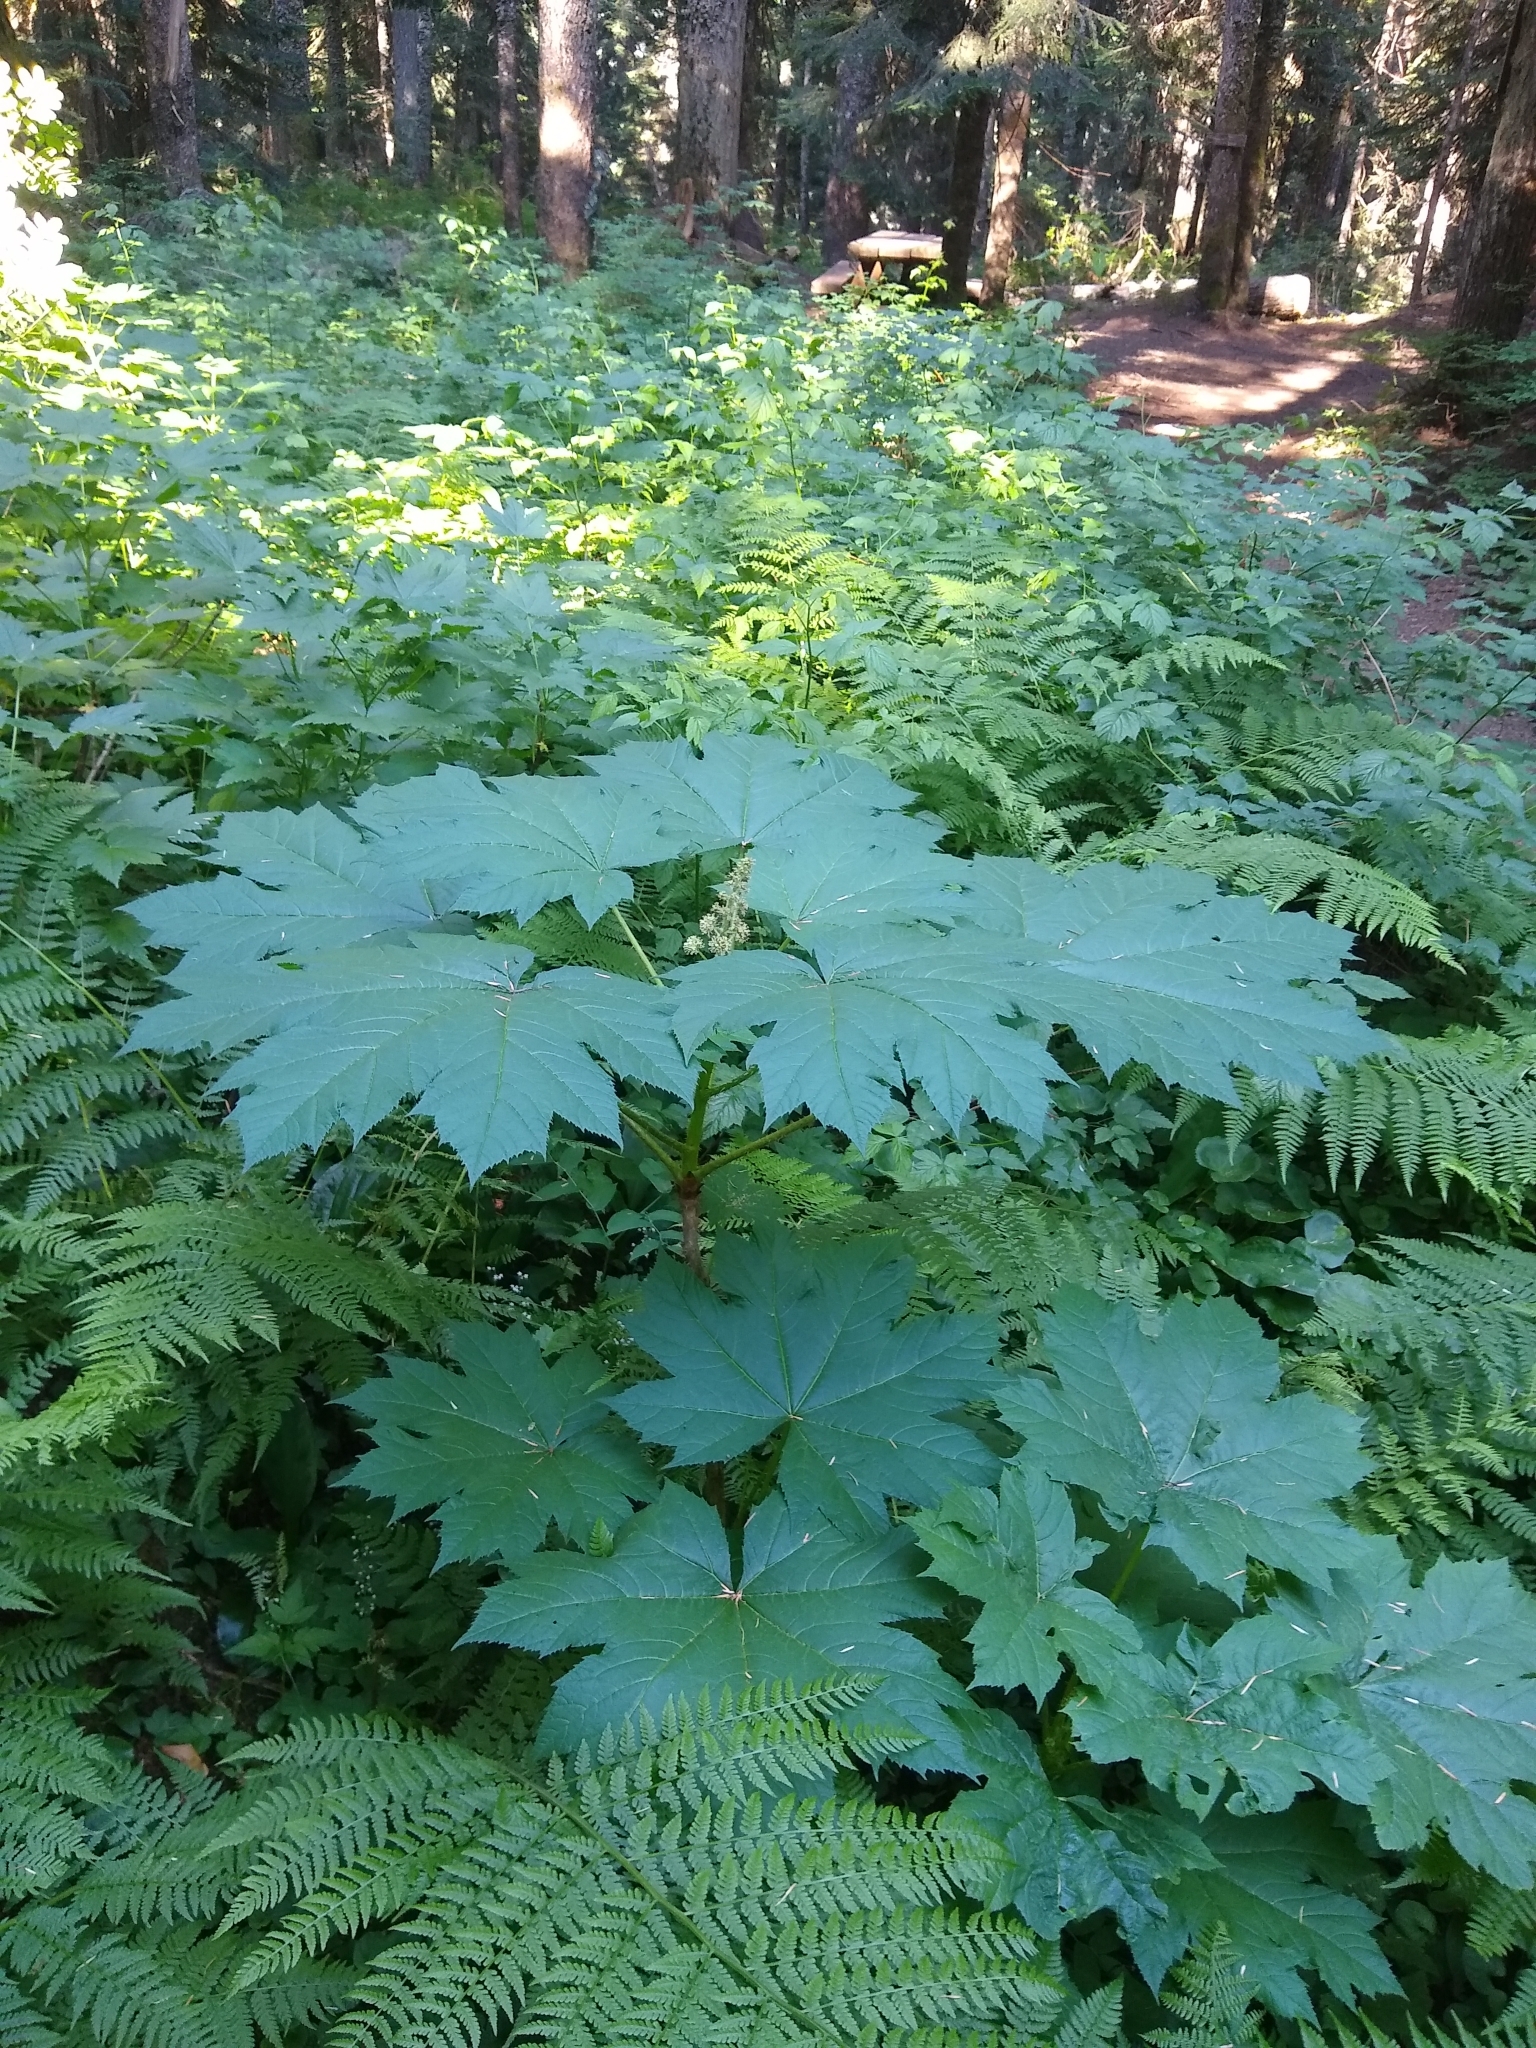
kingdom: Plantae
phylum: Tracheophyta
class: Magnoliopsida
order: Apiales
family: Araliaceae
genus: Oplopanax
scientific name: Oplopanax horridus
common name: Devil's walking-stick
